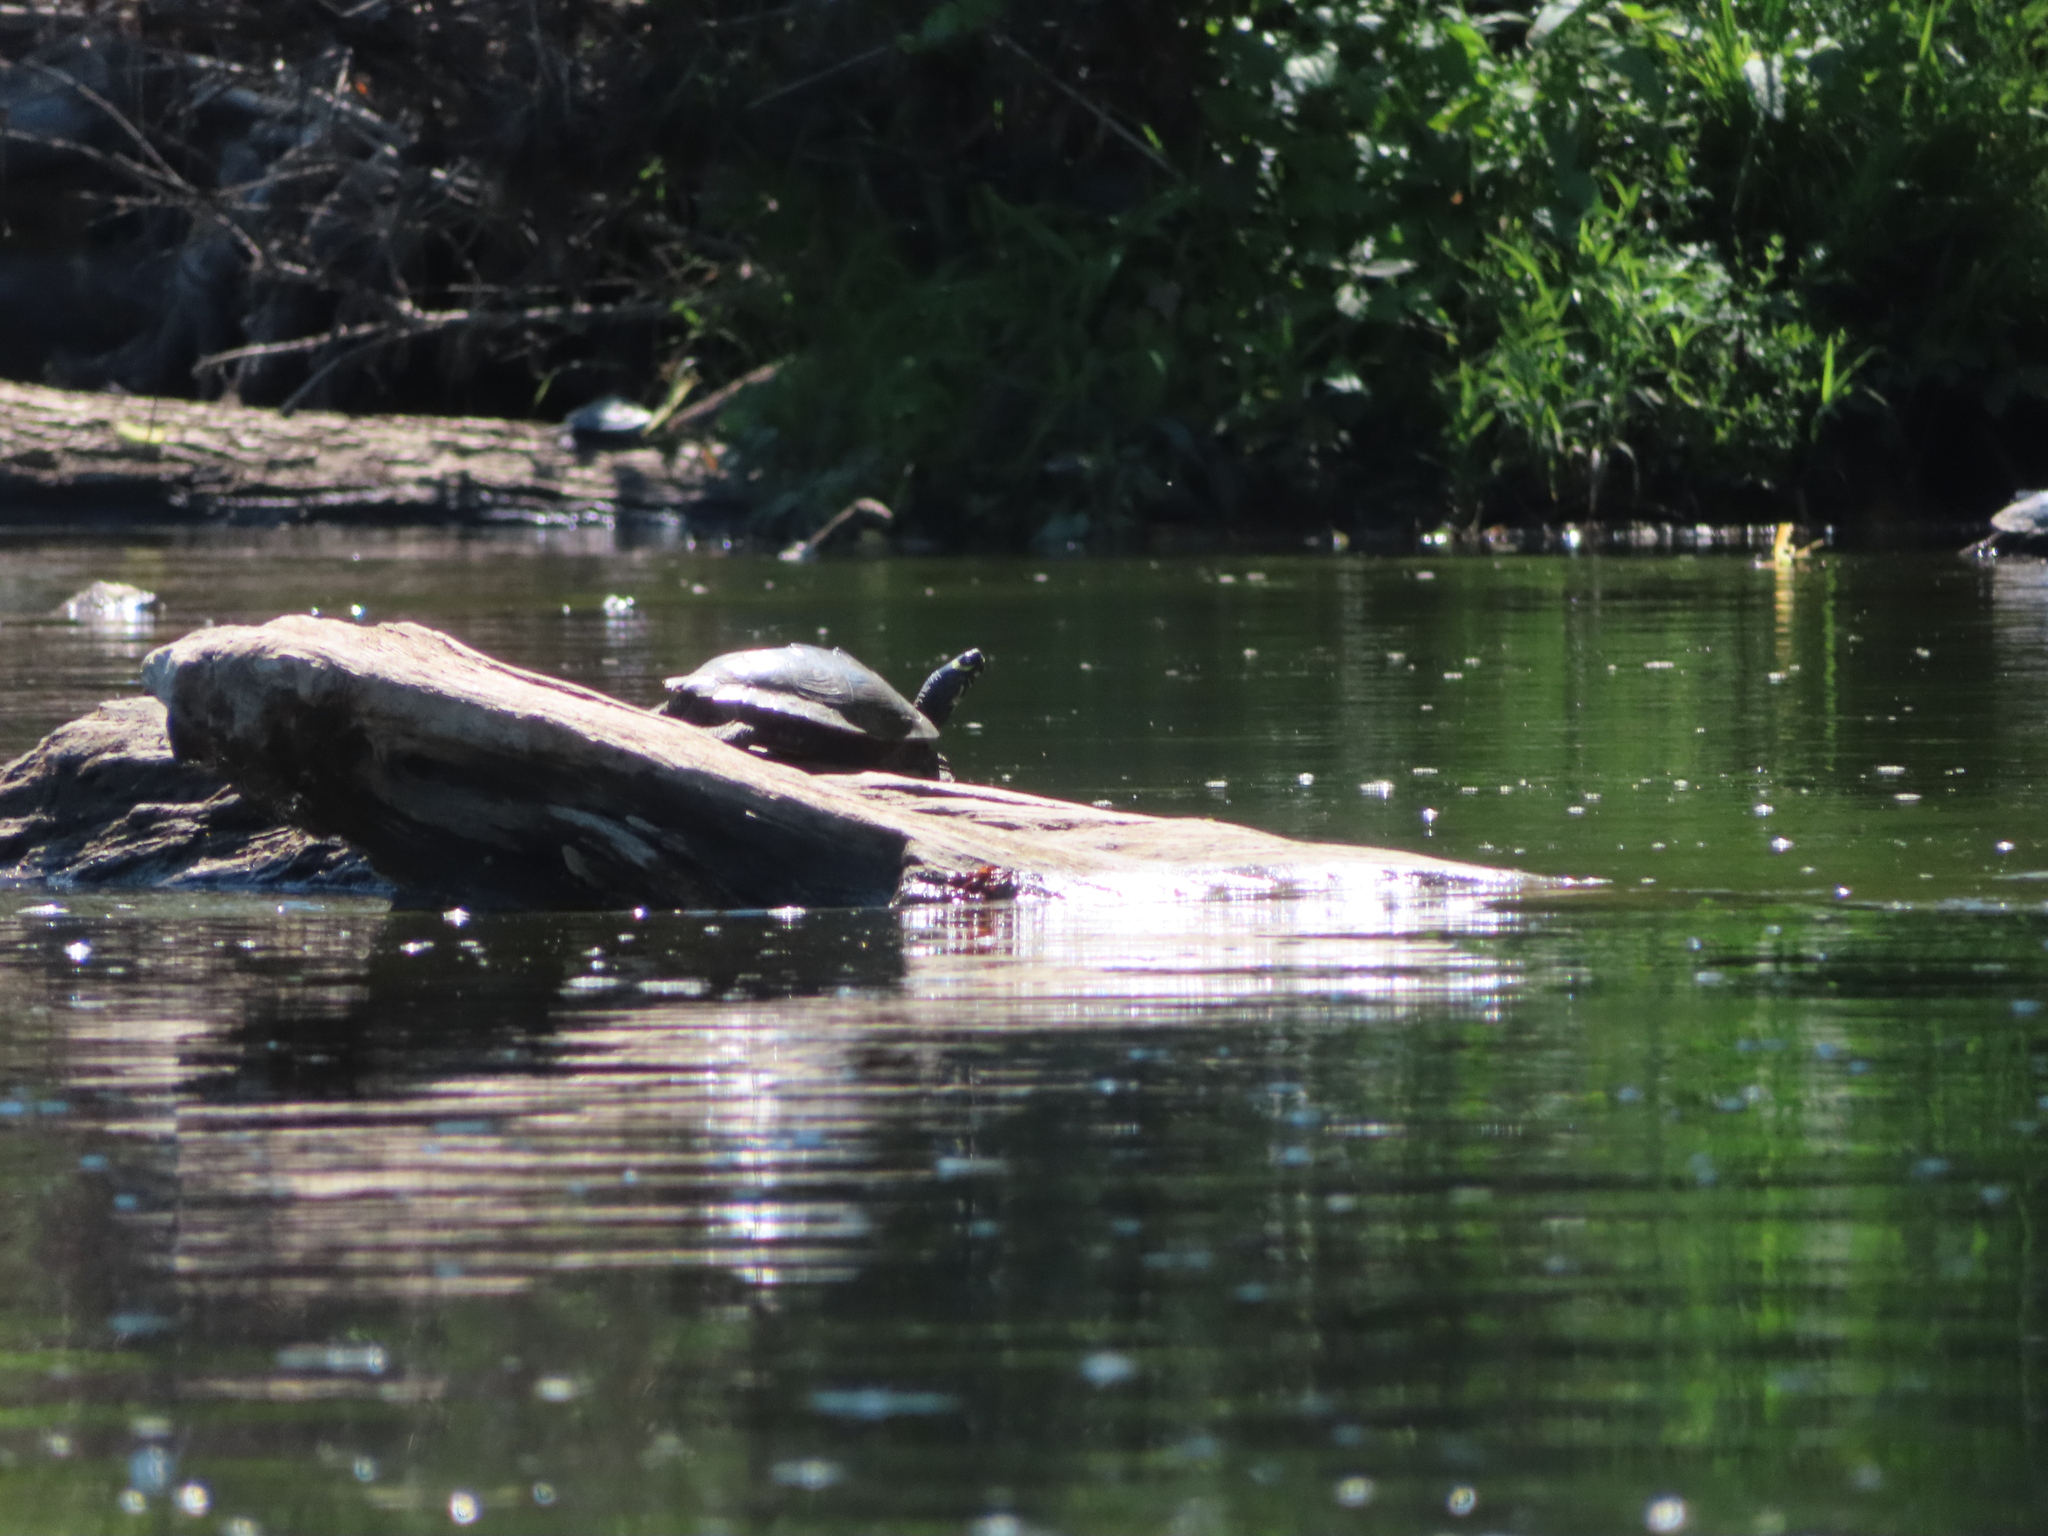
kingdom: Animalia
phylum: Chordata
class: Testudines
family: Emydidae
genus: Graptemys
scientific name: Graptemys ouachitensis
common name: Ouachita map turtle
